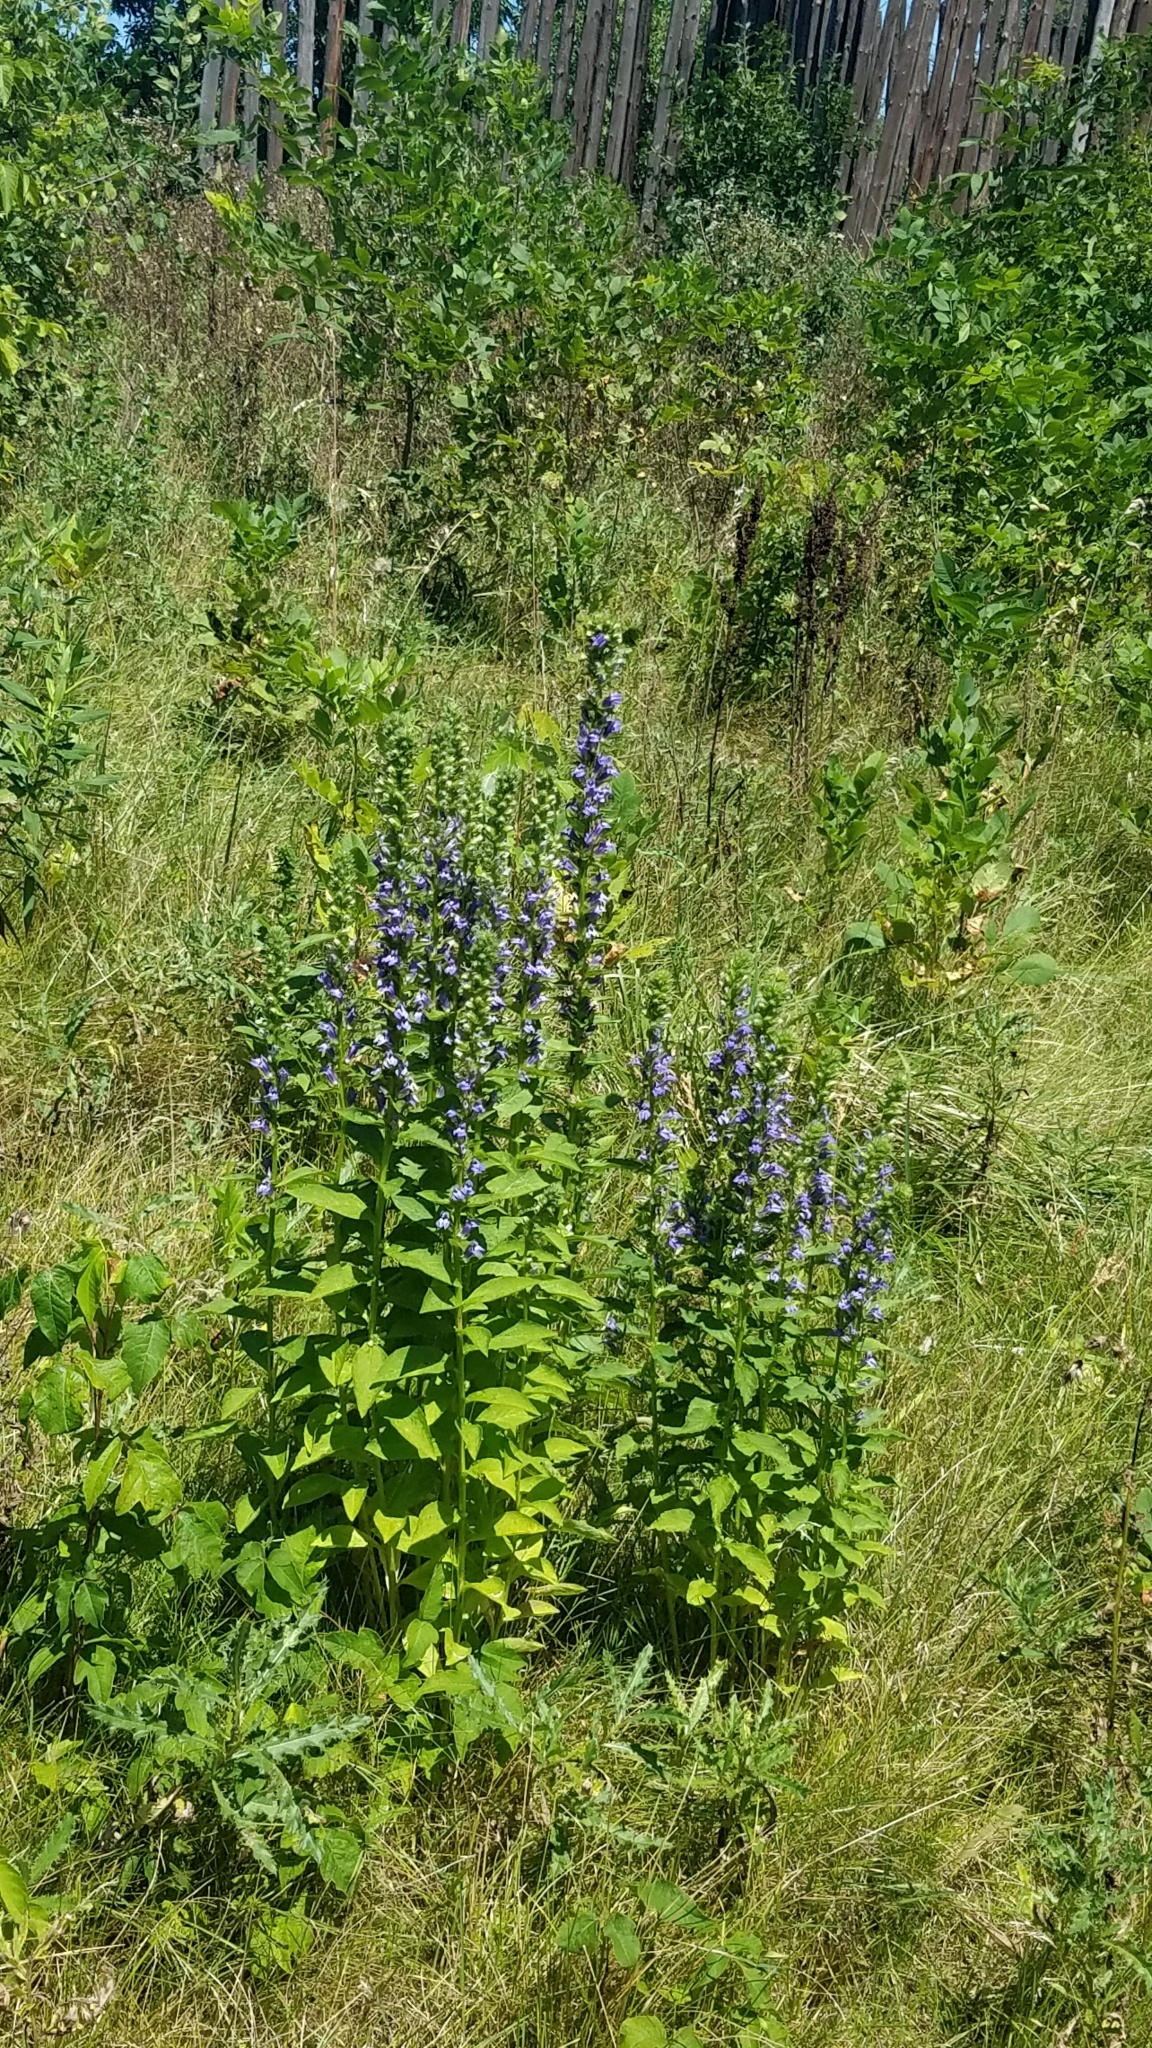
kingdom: Plantae
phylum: Tracheophyta
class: Magnoliopsida
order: Asterales
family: Campanulaceae
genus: Lobelia
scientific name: Lobelia siphilitica
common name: Great lobelia
